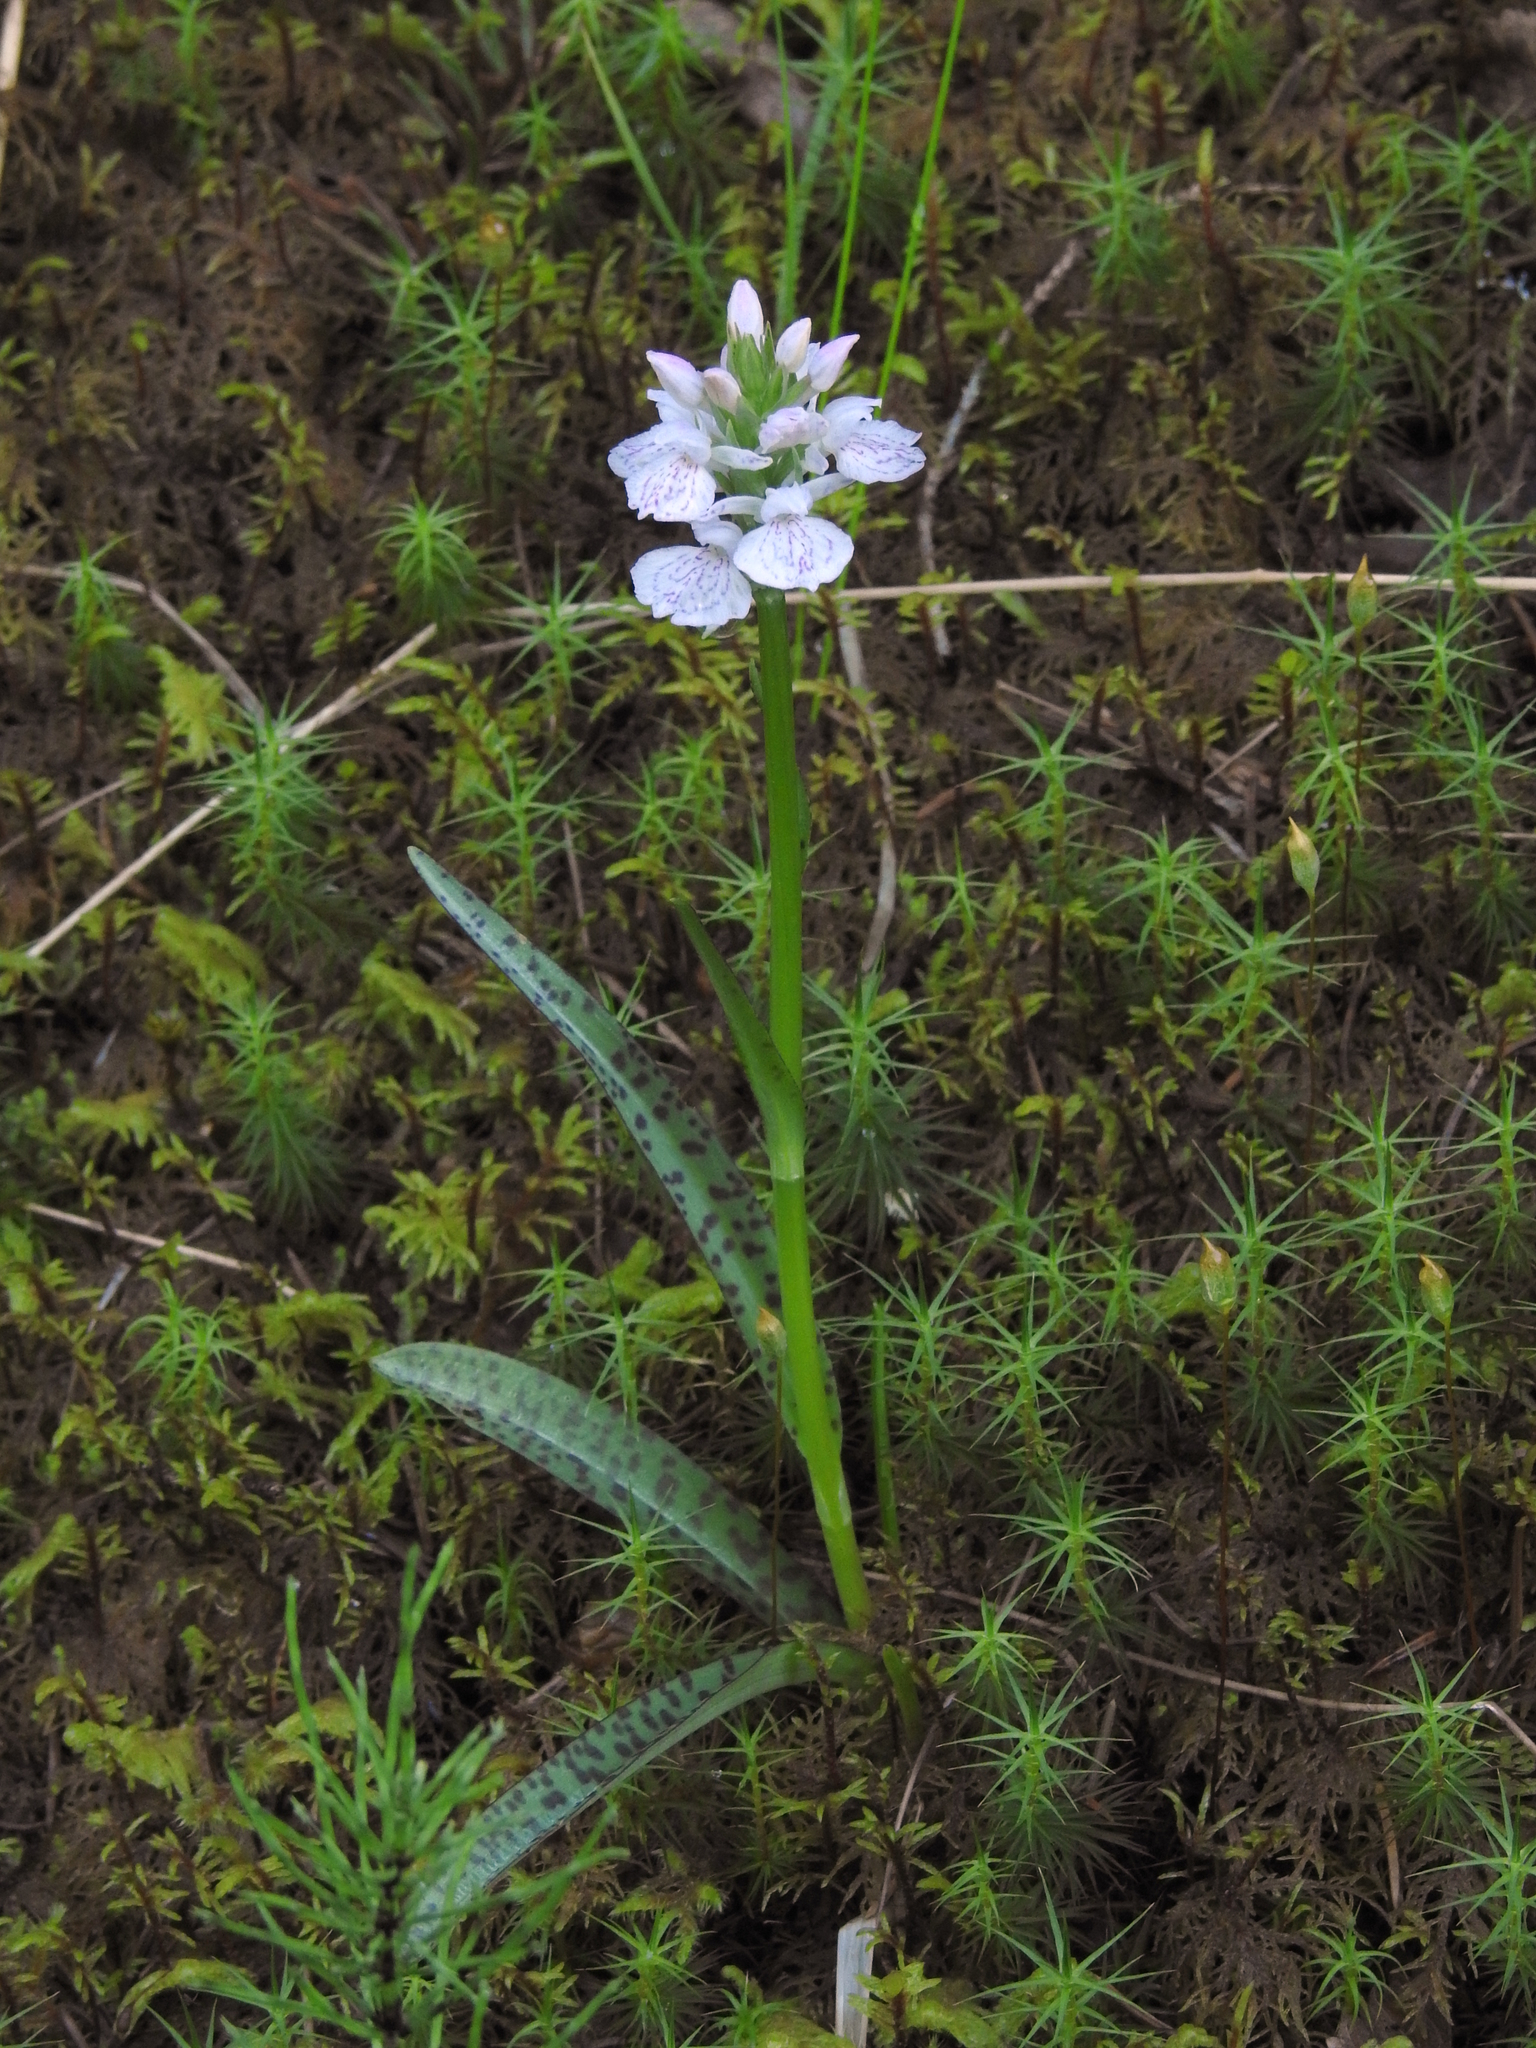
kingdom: Plantae
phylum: Tracheophyta
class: Liliopsida
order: Asparagales
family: Orchidaceae
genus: Dactylorhiza
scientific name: Dactylorhiza maculata
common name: Heath spotted-orchid
